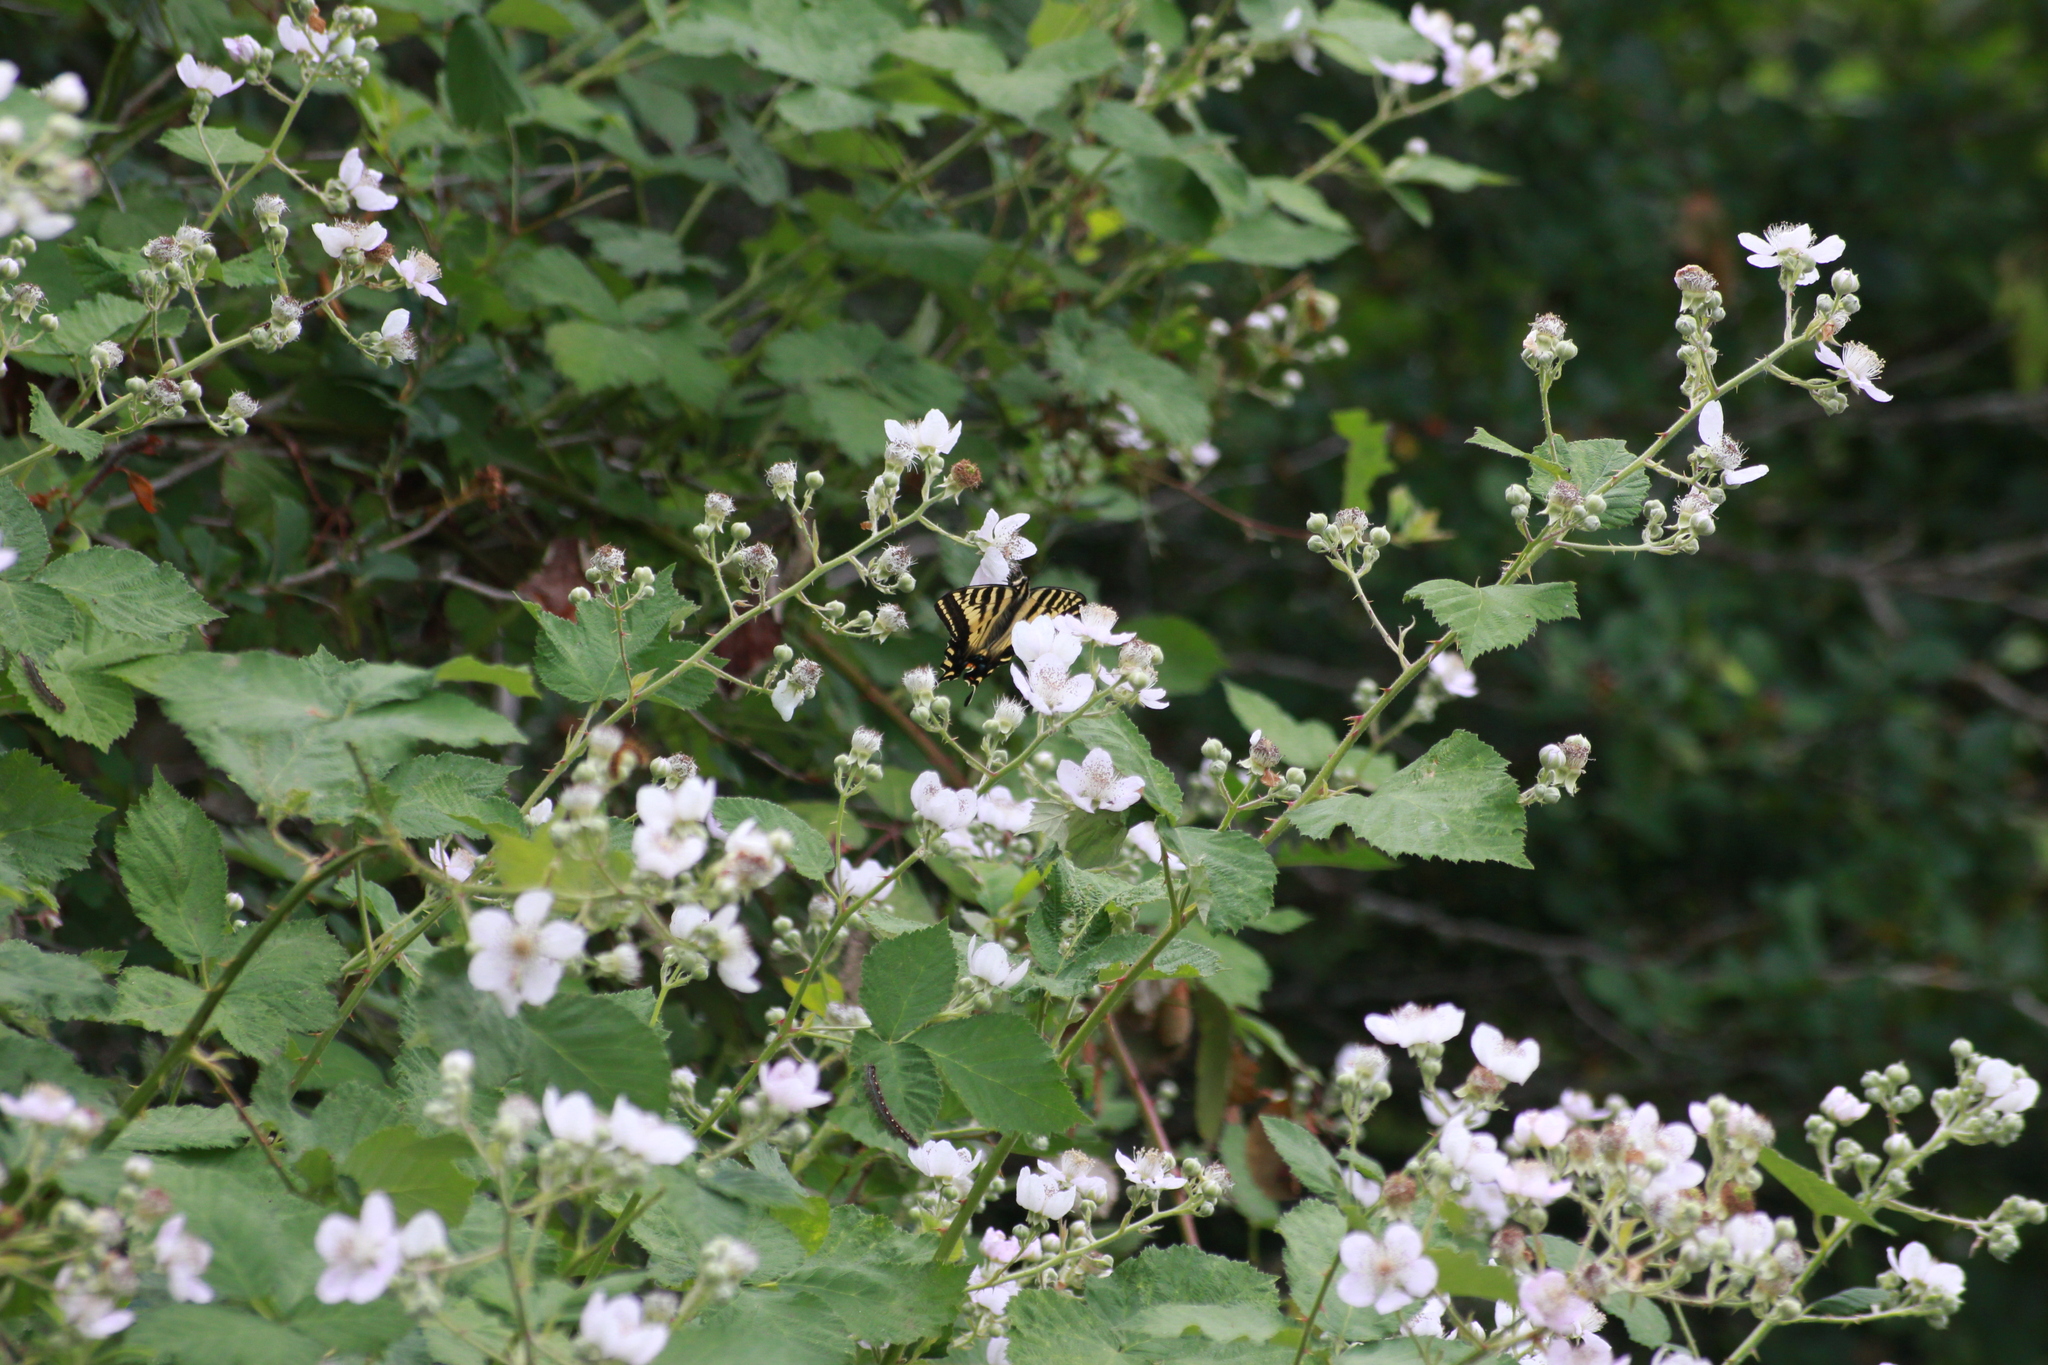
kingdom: Animalia
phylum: Arthropoda
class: Insecta
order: Lepidoptera
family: Papilionidae
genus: Papilio
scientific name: Papilio rutulus
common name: Western tiger swallowtail
